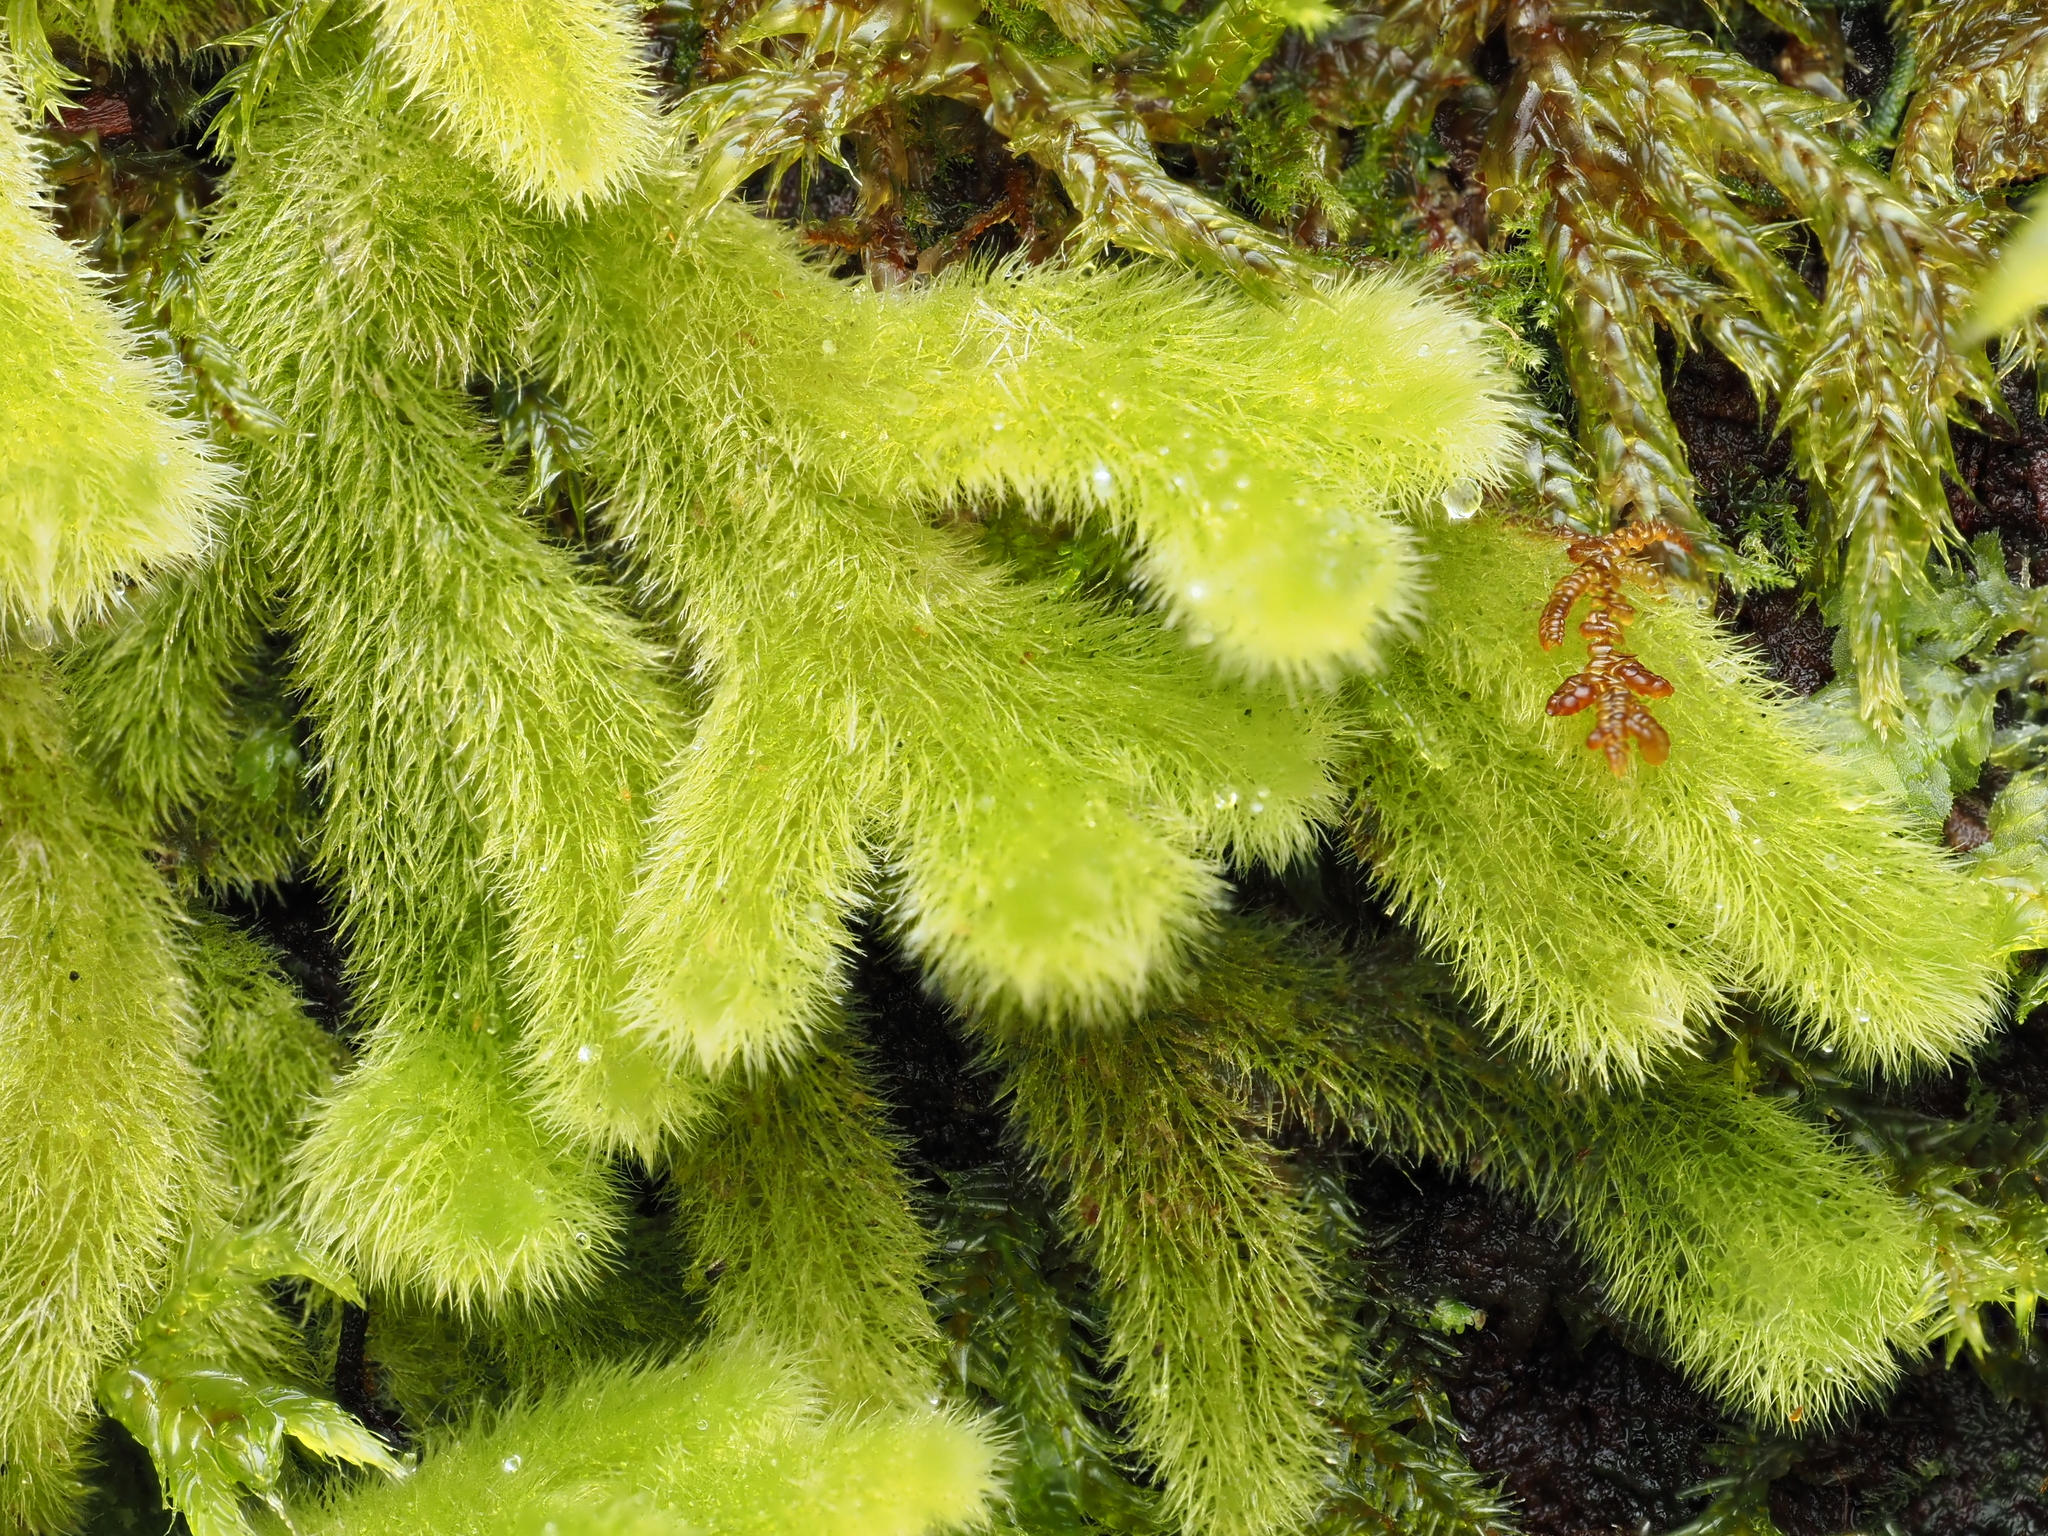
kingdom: Plantae
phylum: Marchantiophyta
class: Jungermanniopsida
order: Jungermanniales
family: Trichocoleaceae
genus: Leiomitra
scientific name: Leiomitra lanata
